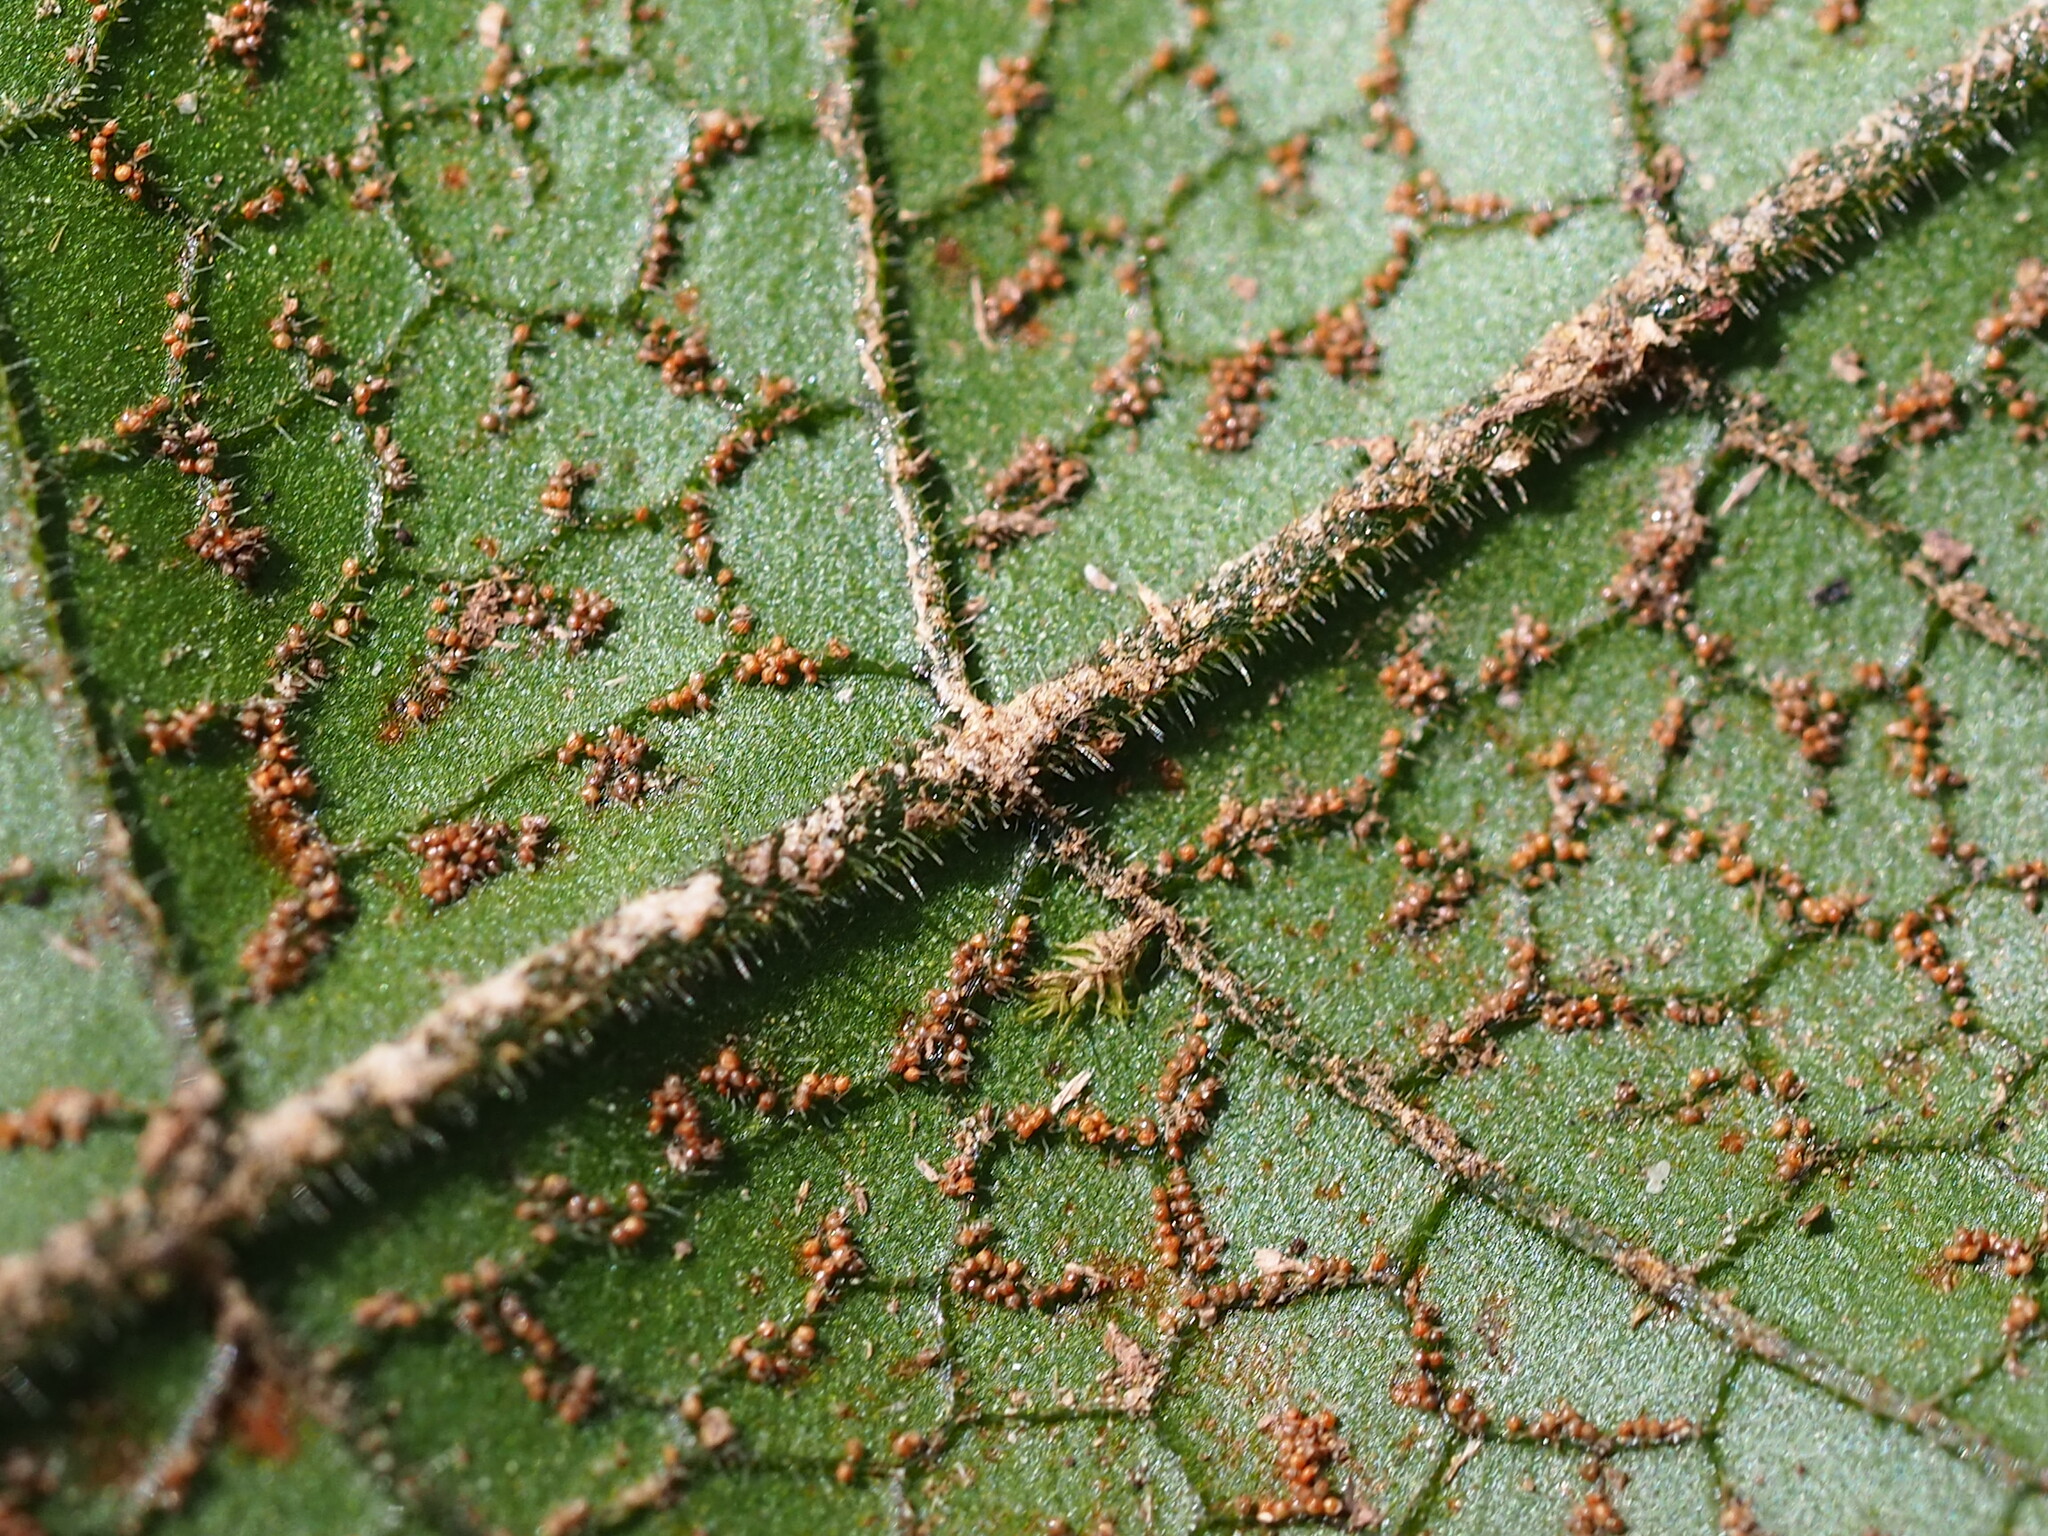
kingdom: Plantae
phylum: Tracheophyta
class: Polypodiopsida
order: Polypodiales
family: Thelypteridaceae
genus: Stegnogramma
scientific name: Stegnogramma wilfordii
